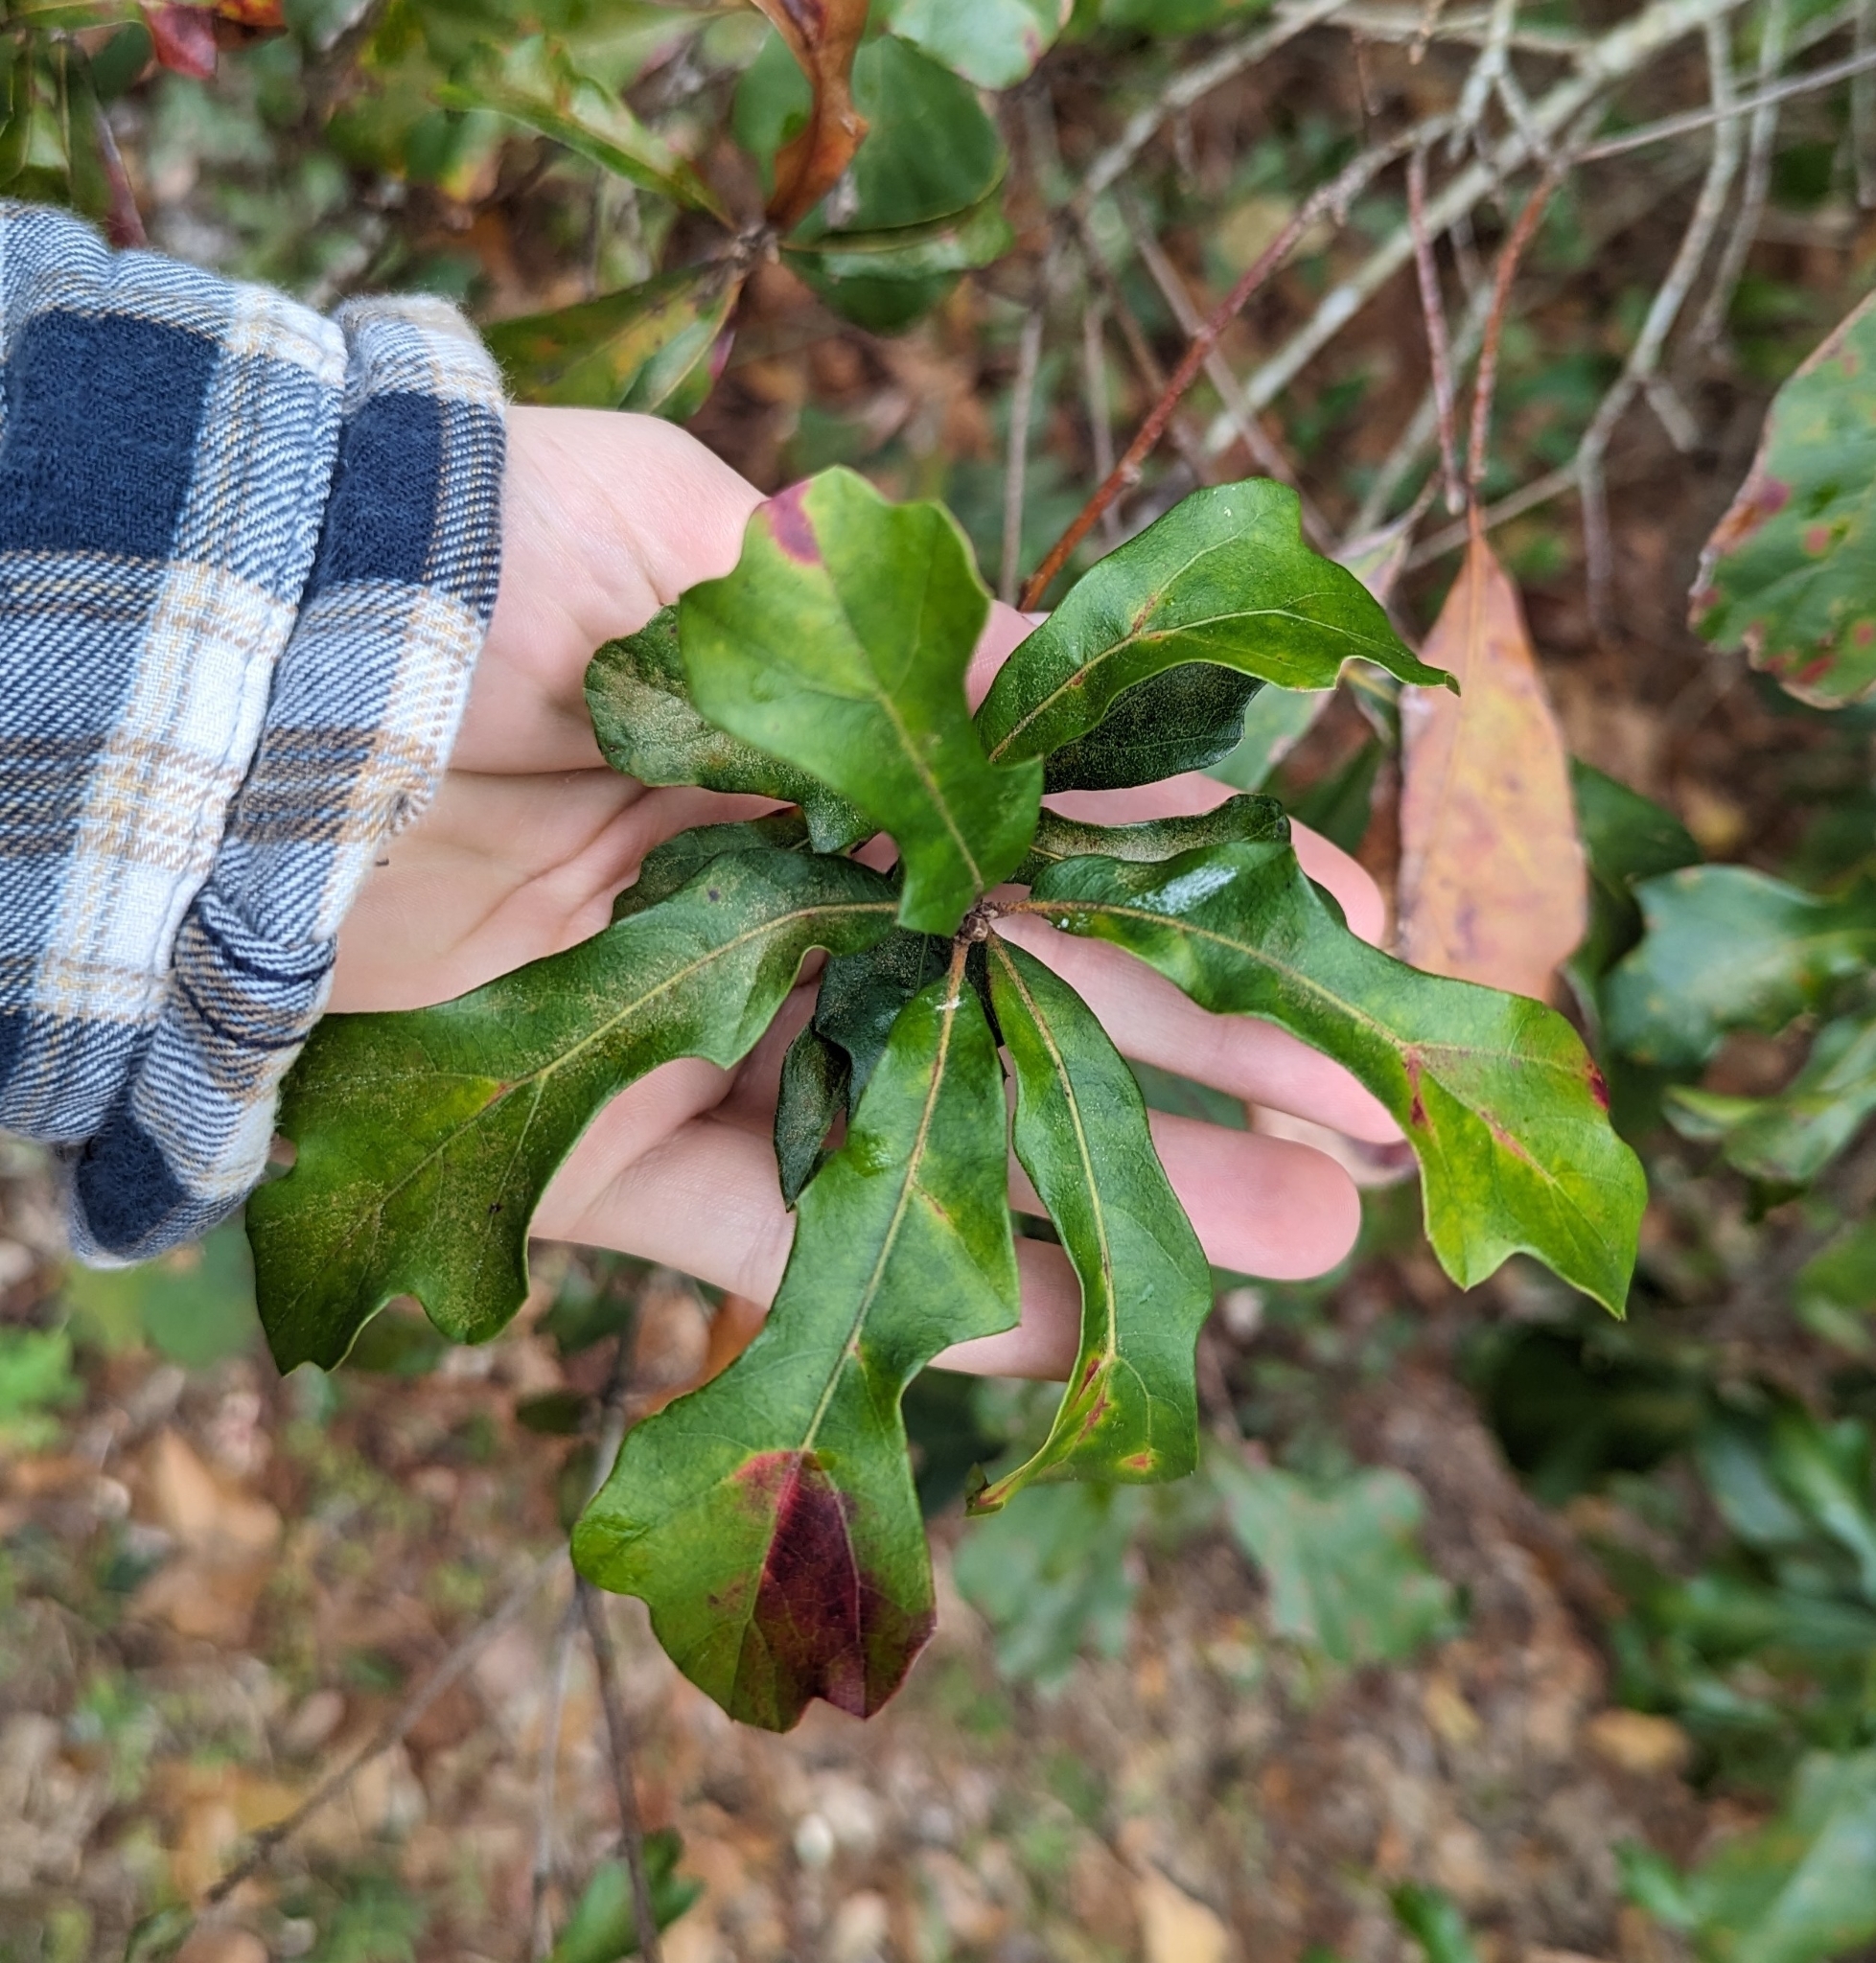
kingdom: Plantae
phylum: Tracheophyta
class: Magnoliopsida
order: Fagales
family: Fagaceae
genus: Quercus
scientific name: Quercus nigra
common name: Water oak
